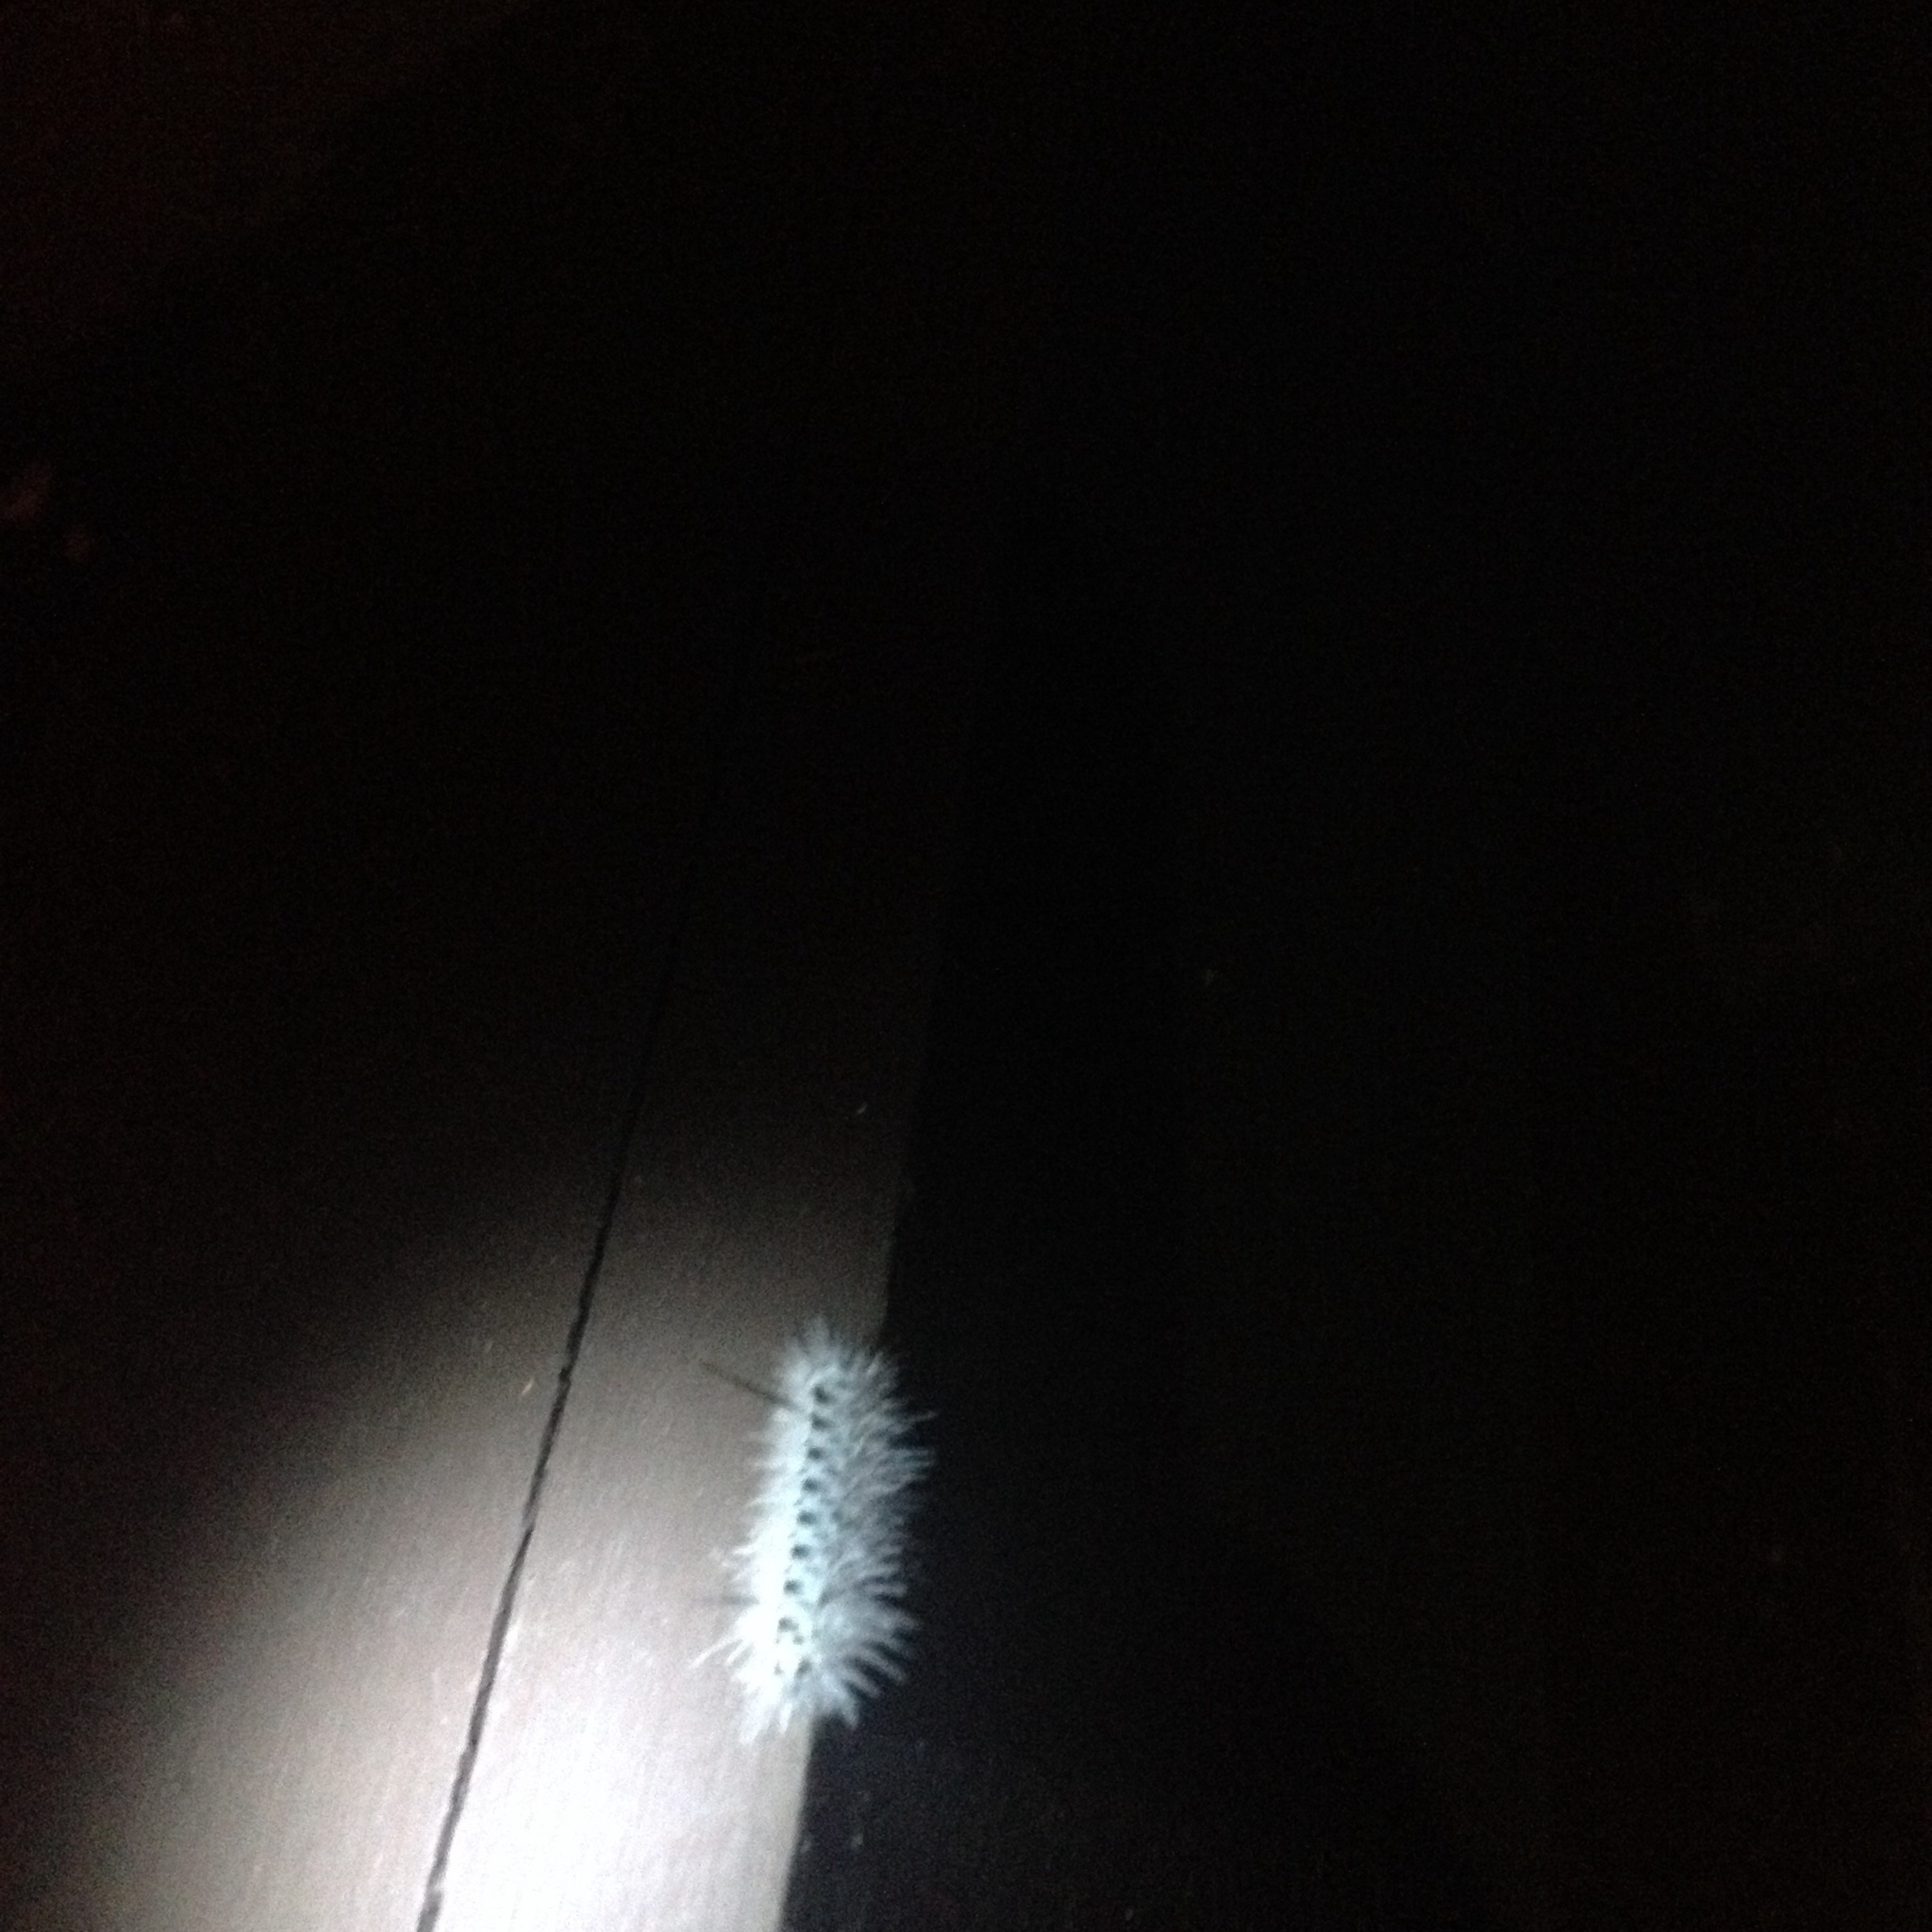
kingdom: Animalia
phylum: Arthropoda
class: Insecta
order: Lepidoptera
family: Erebidae
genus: Lophocampa
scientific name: Lophocampa caryae
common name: Hickory tussock moth
